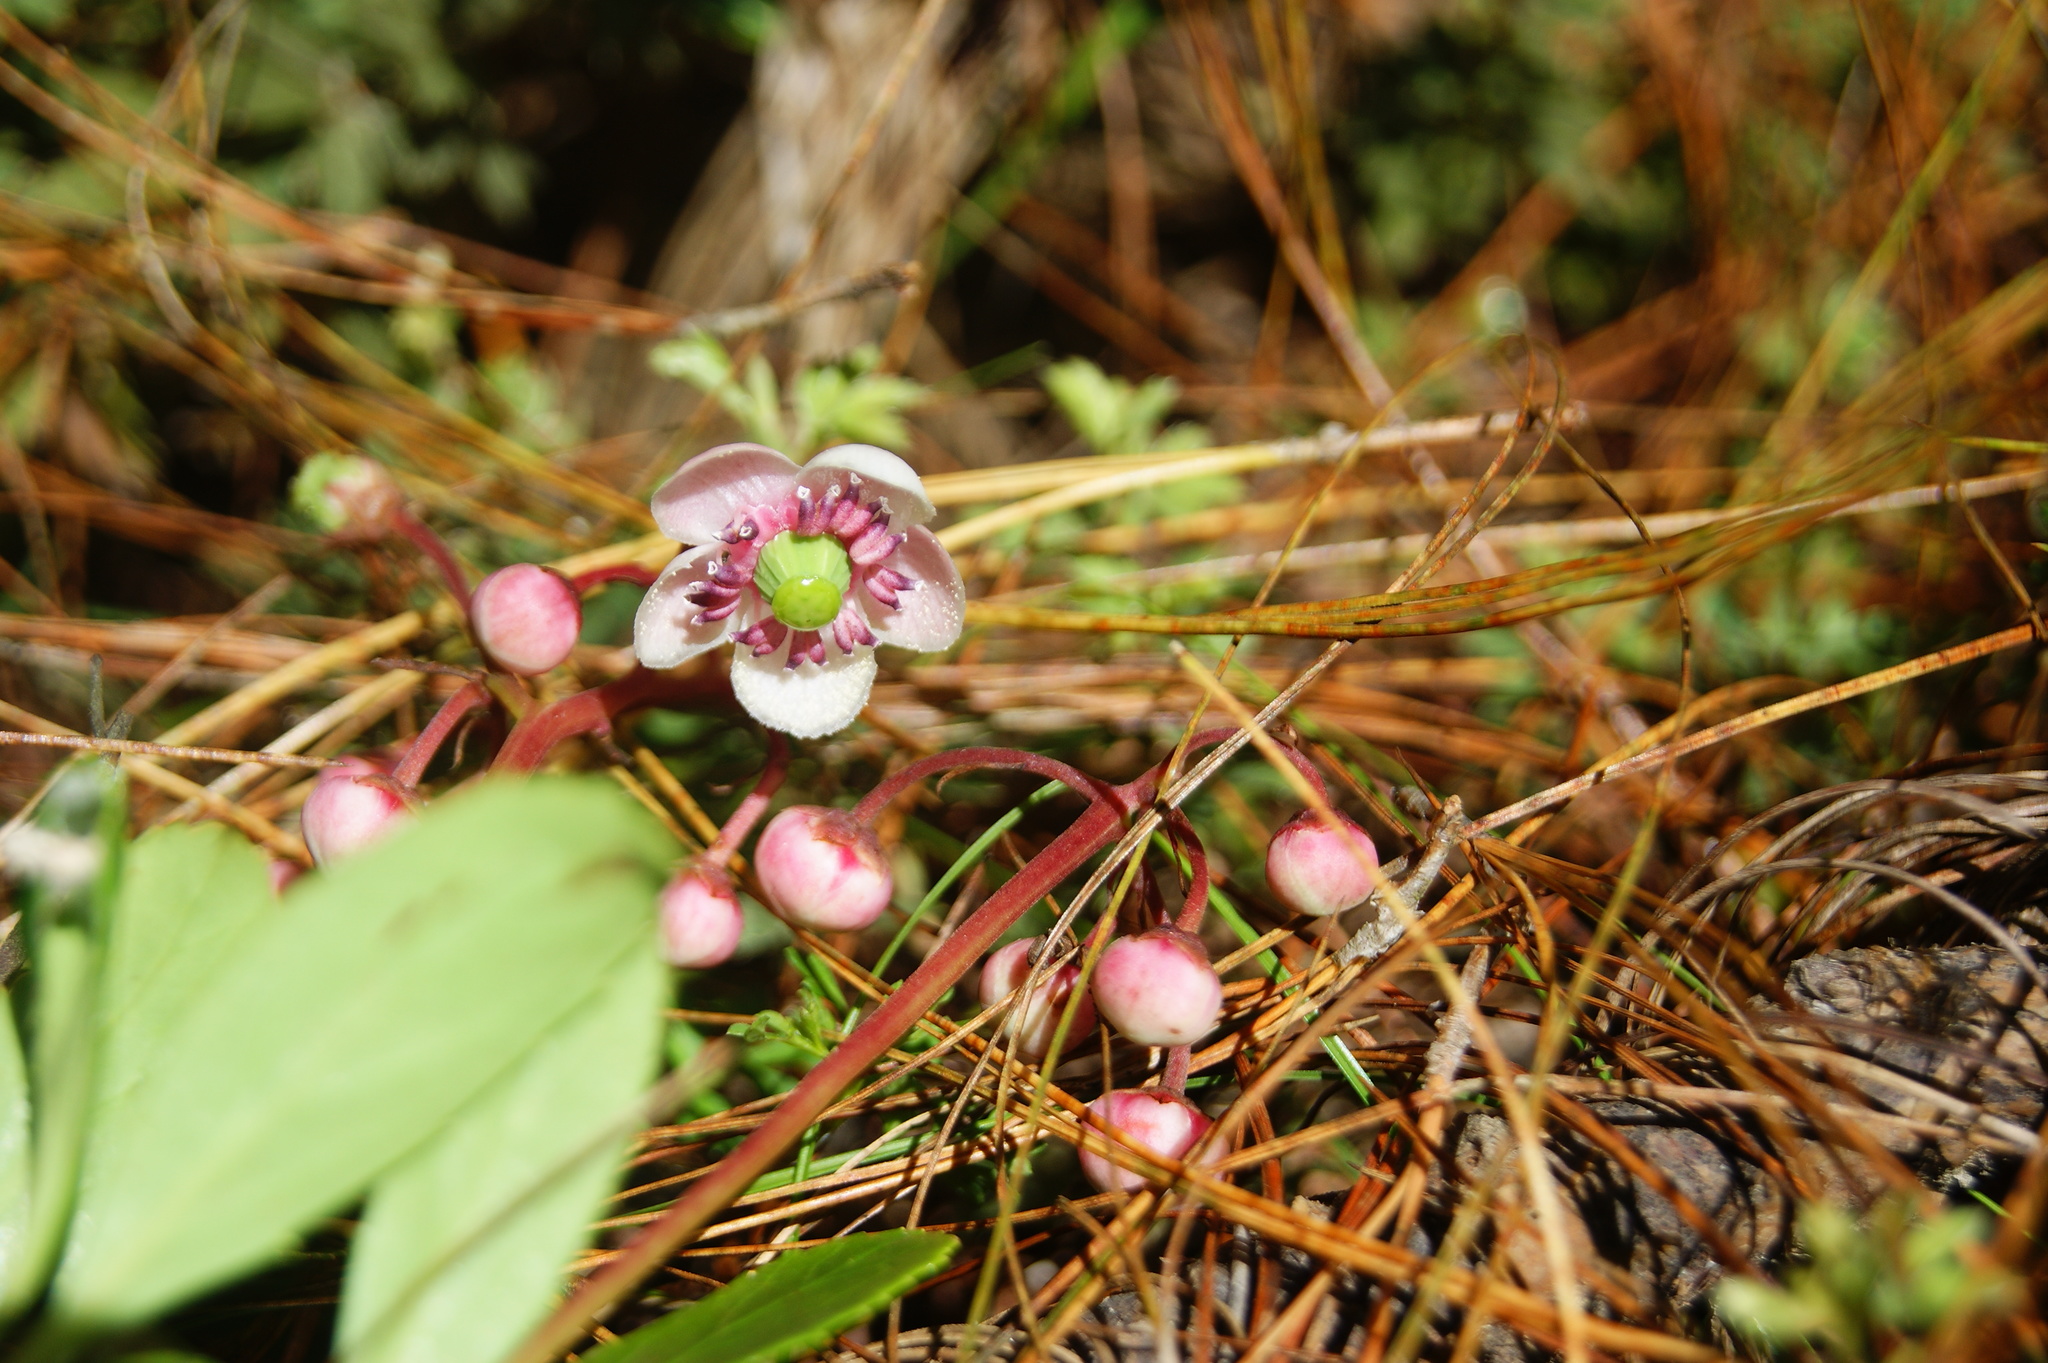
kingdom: Plantae
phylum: Tracheophyta
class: Magnoliopsida
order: Ericales
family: Ericaceae
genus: Chimaphila
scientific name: Chimaphila umbellata
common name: Pipsissewa
